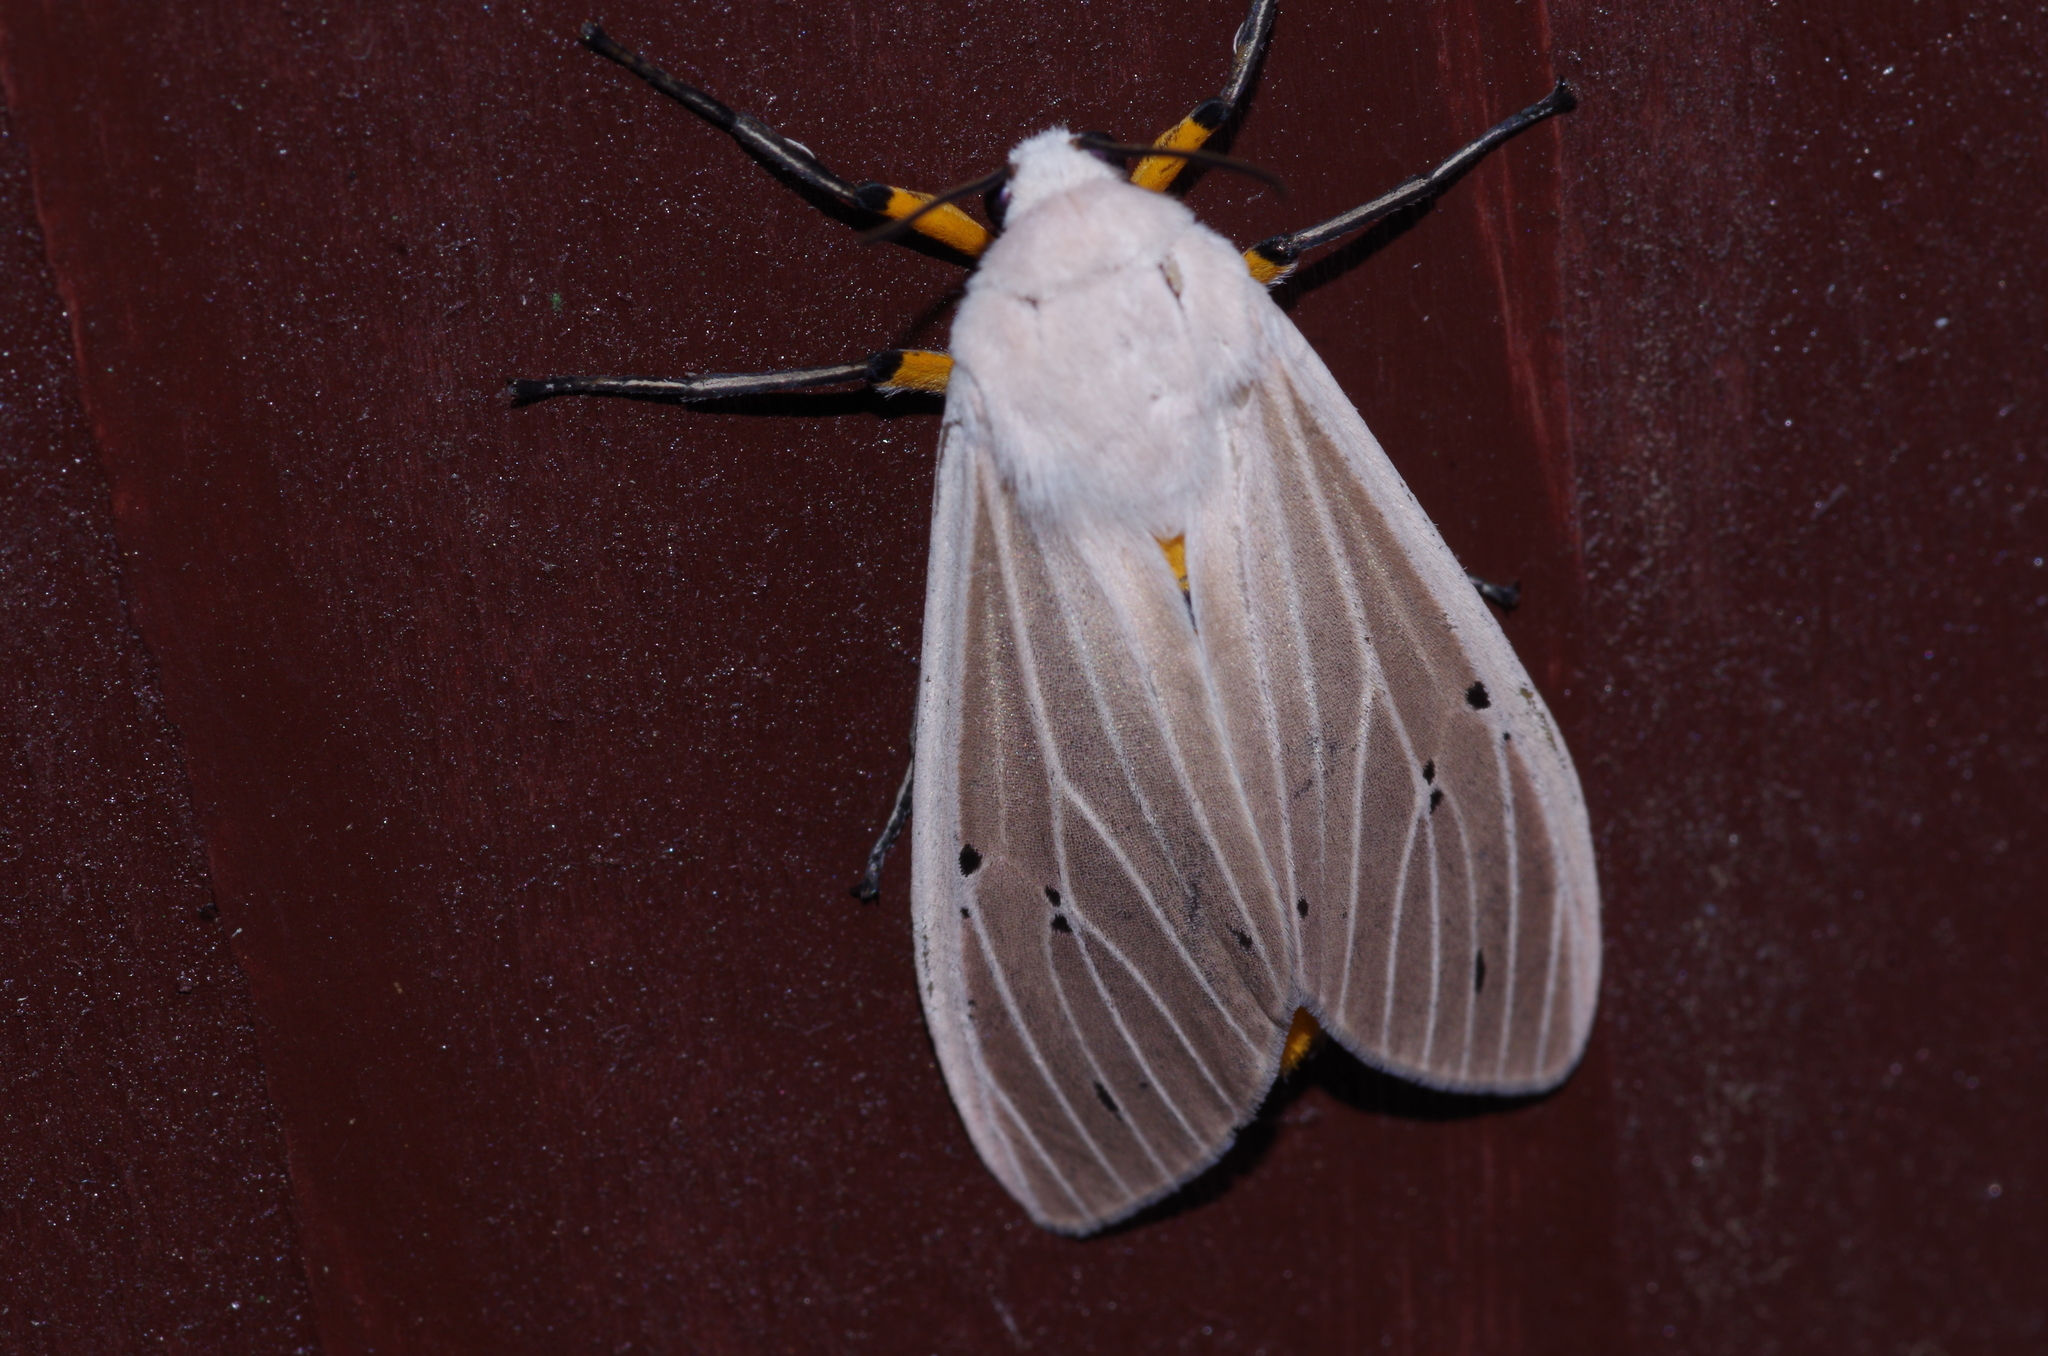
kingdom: Animalia
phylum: Arthropoda
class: Insecta
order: Lepidoptera
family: Erebidae
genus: Creatonotos
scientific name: Creatonotos transiens
